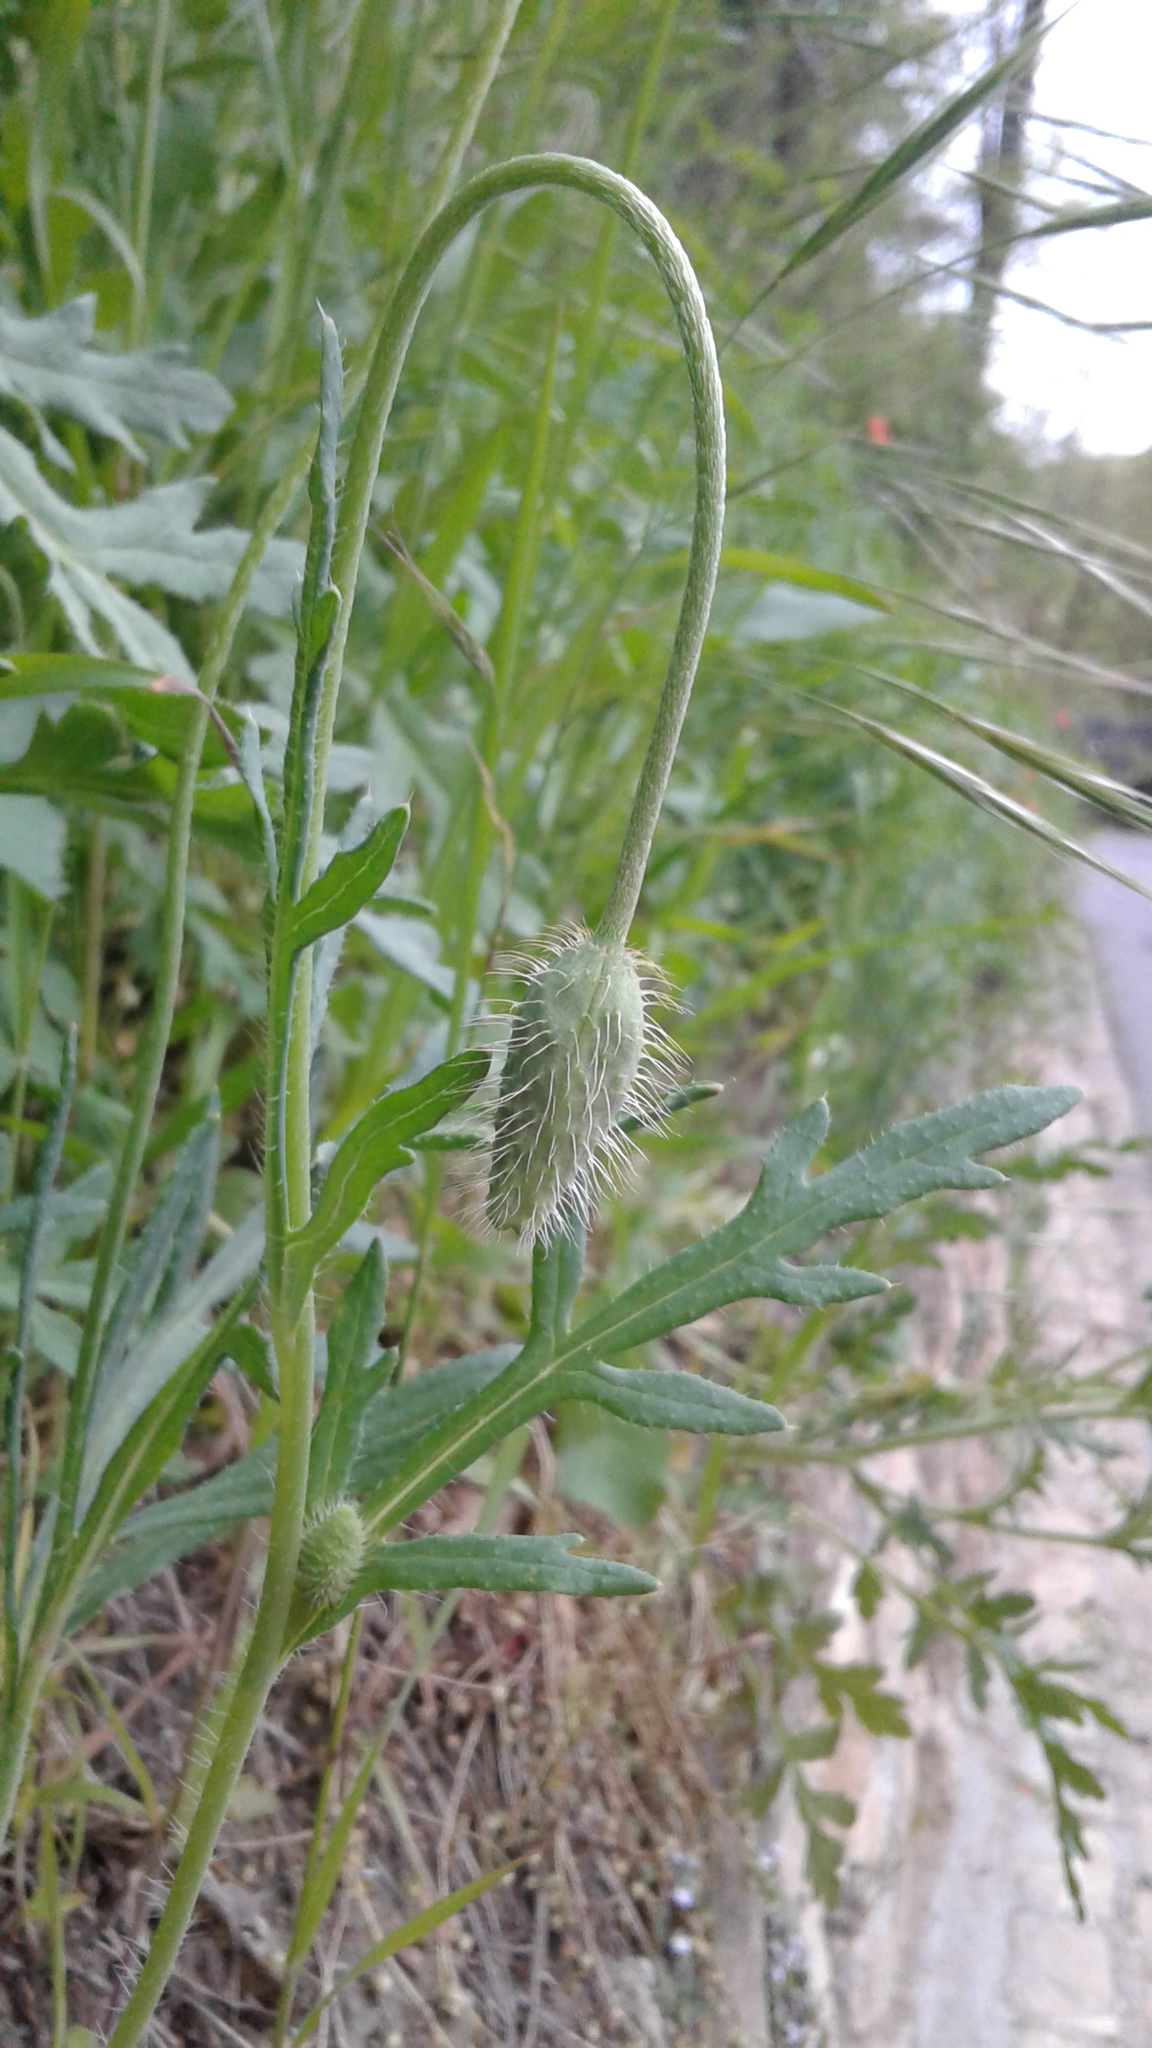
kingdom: Plantae
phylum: Tracheophyta
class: Magnoliopsida
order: Ranunculales
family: Papaveraceae
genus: Papaver
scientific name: Papaver rhoeas
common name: Corn poppy
